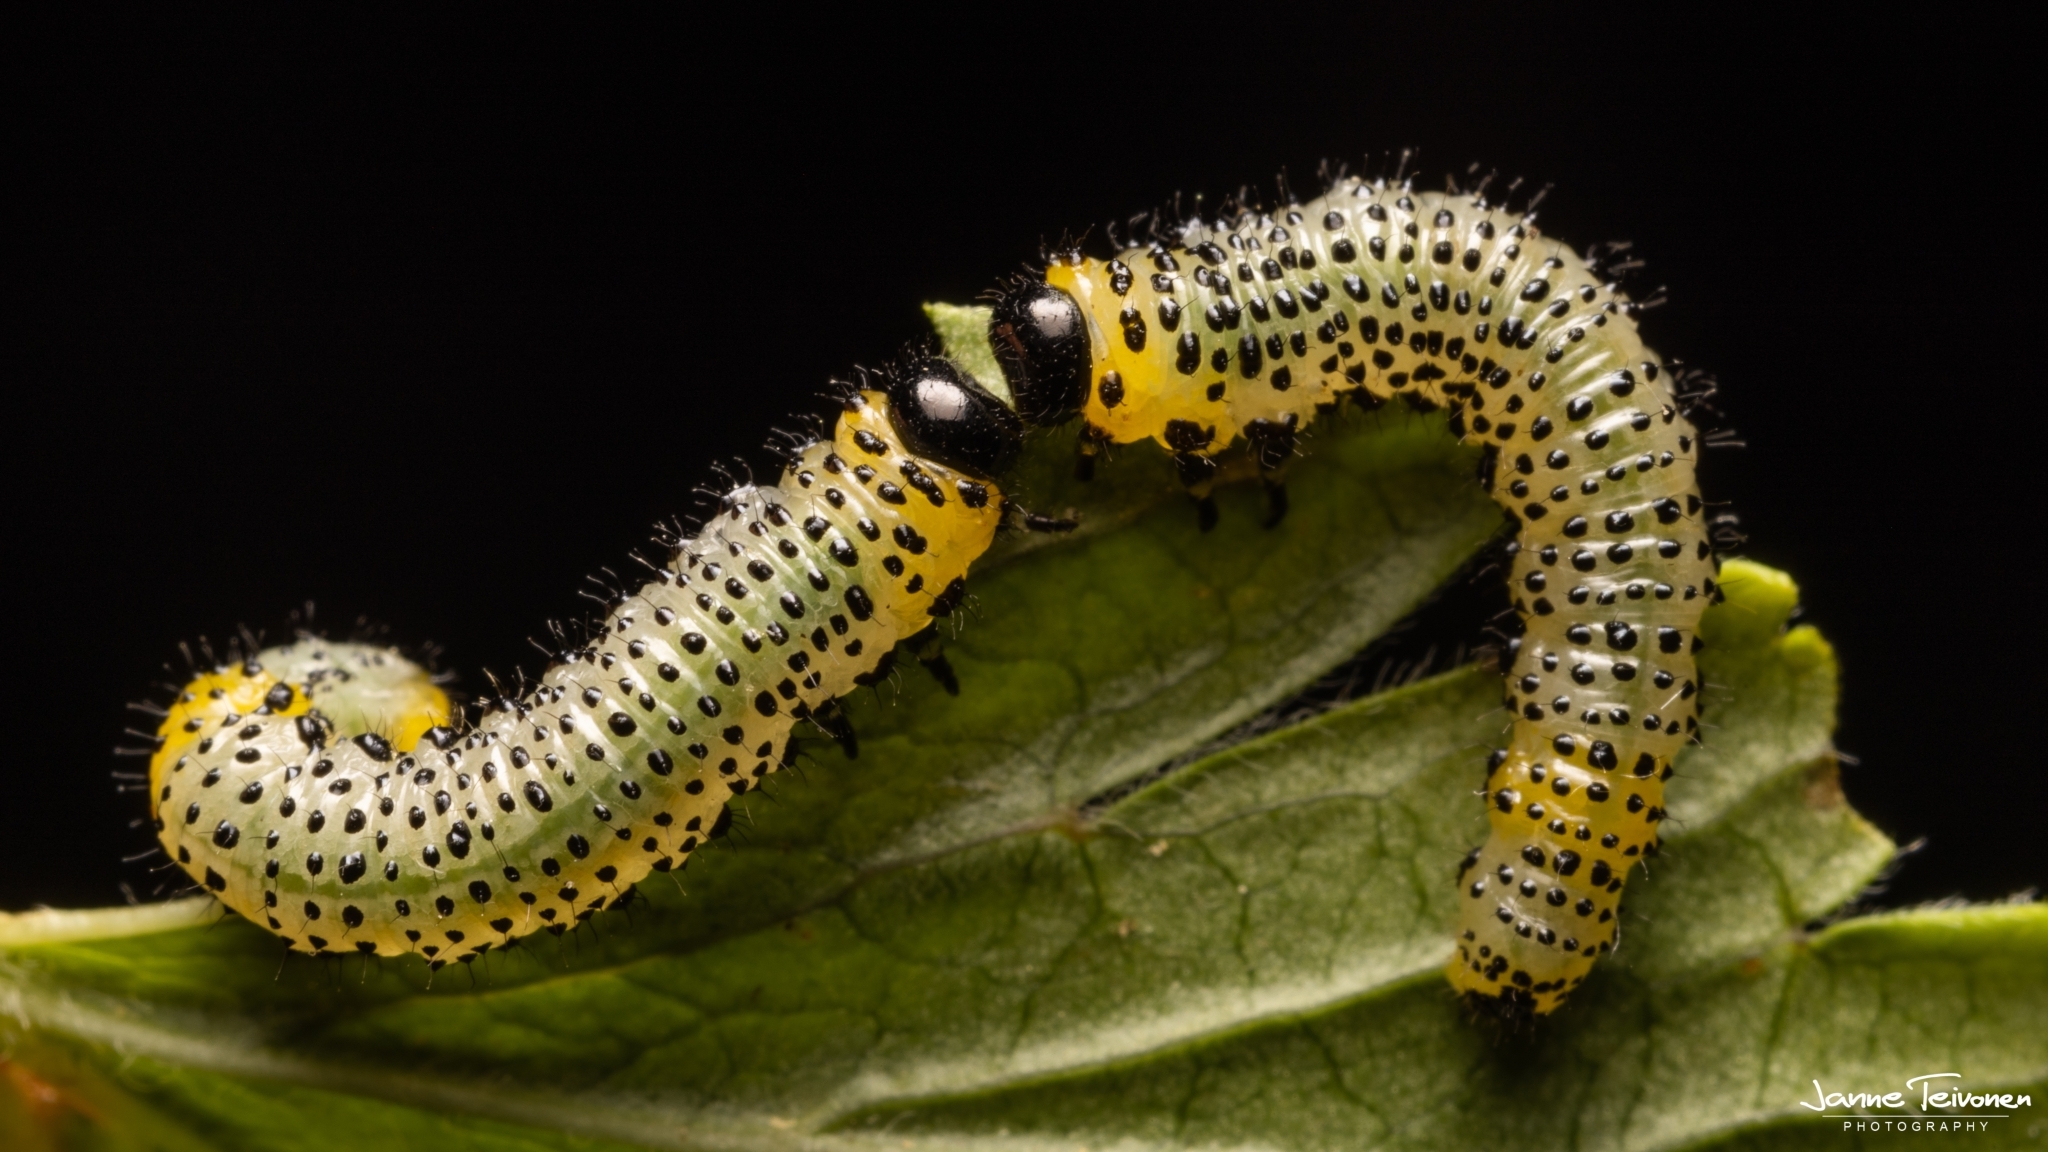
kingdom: Animalia
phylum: Arthropoda
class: Insecta
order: Hymenoptera
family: Tenthredinidae
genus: Nematus
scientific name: Nematus ribesii
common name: Imported currantworm
